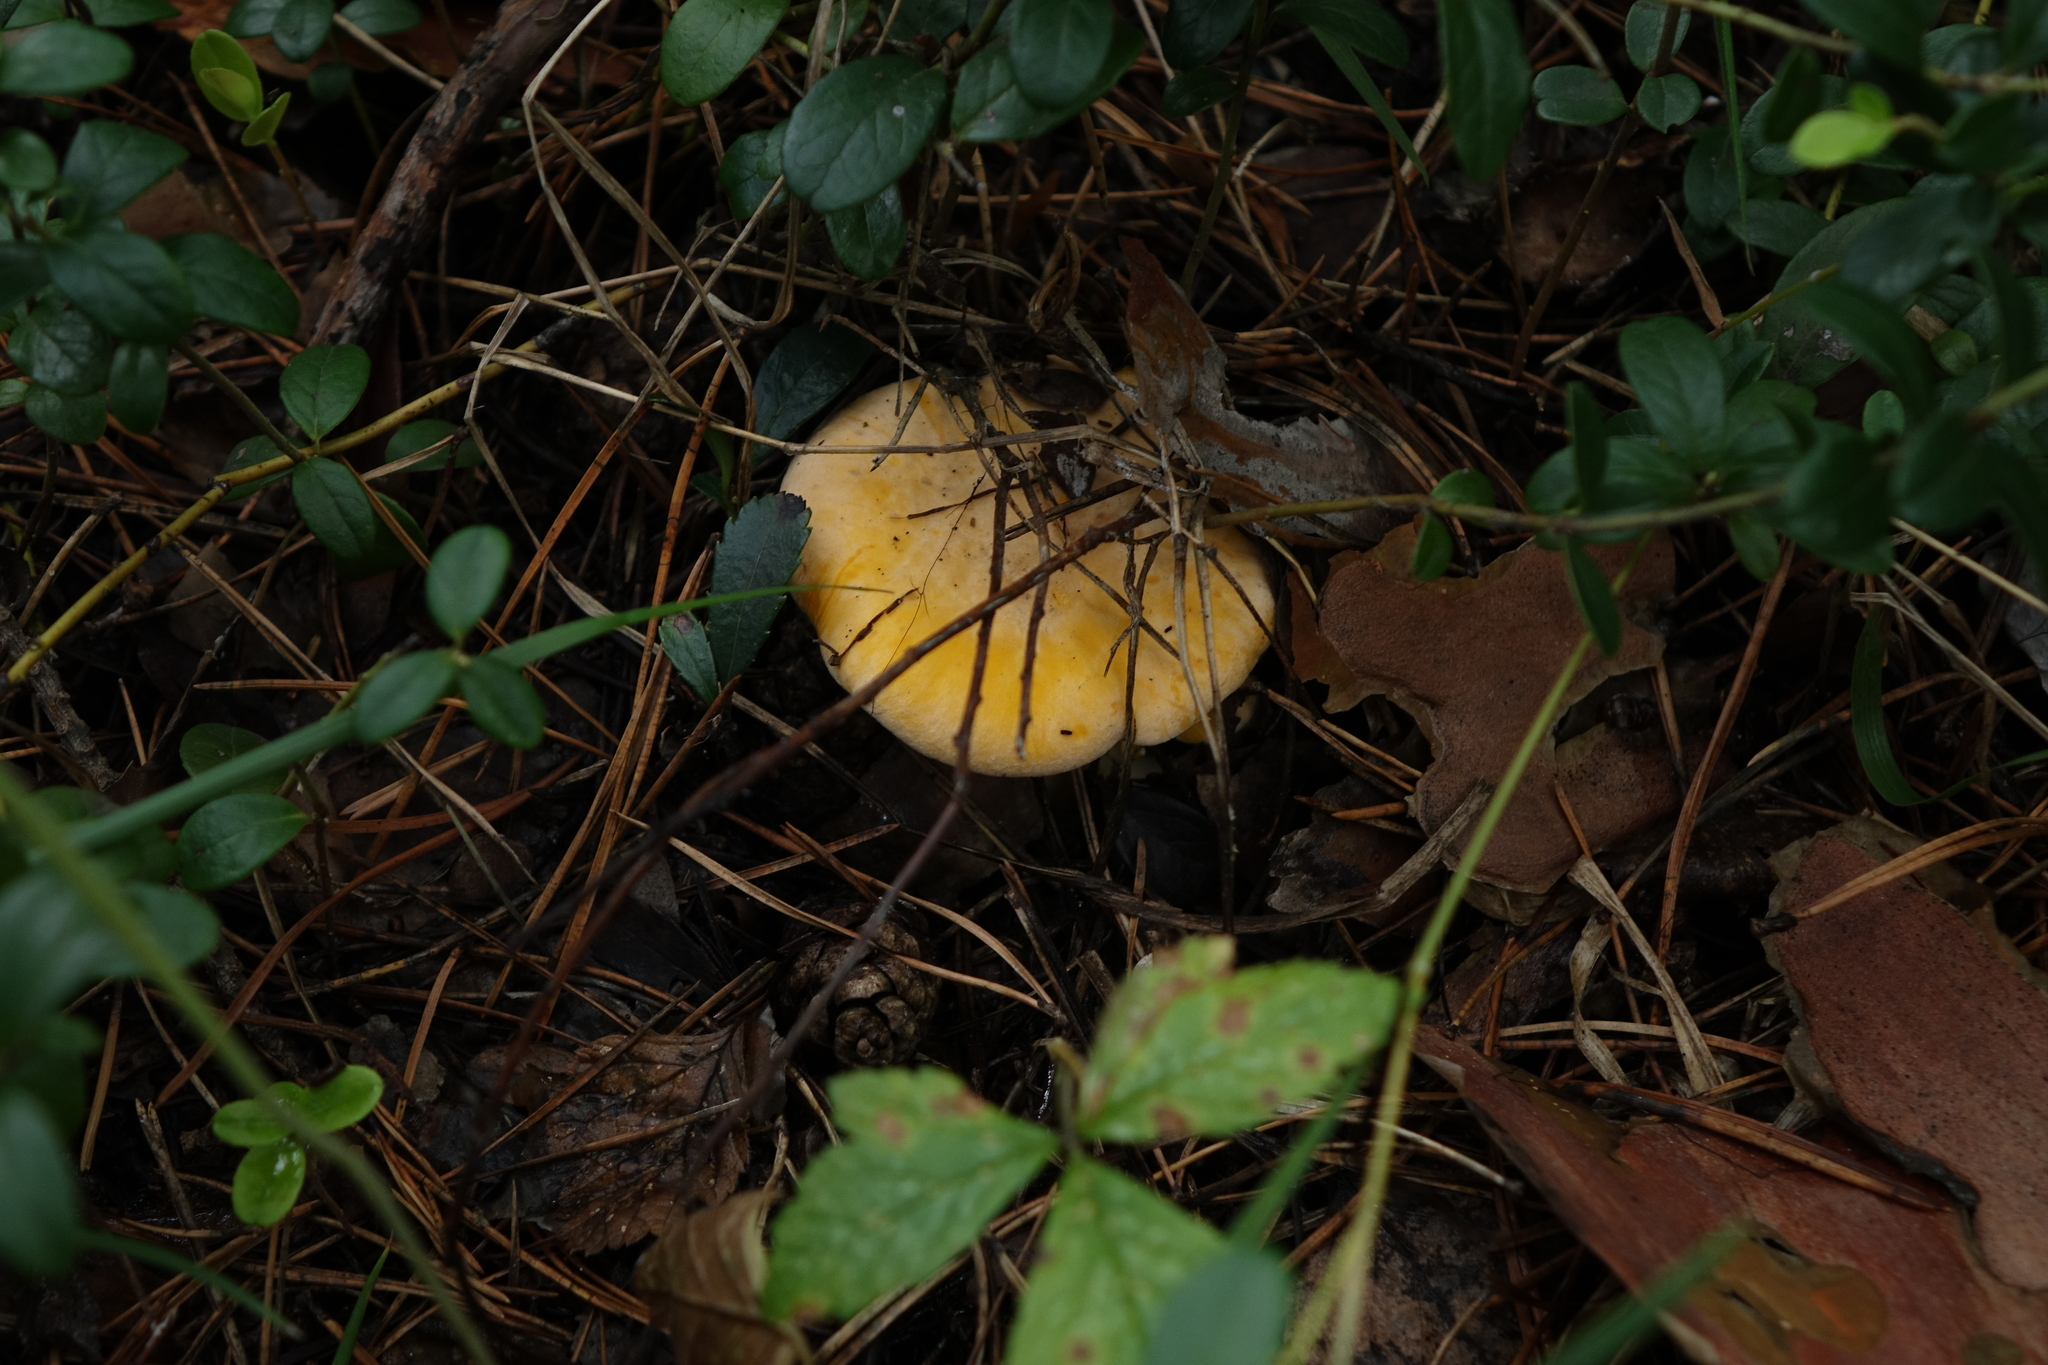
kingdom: Fungi
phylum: Basidiomycota
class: Agaricomycetes
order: Cantharellales
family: Hydnaceae
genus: Cantharellus
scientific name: Cantharellus cibarius
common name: Chanterelle
